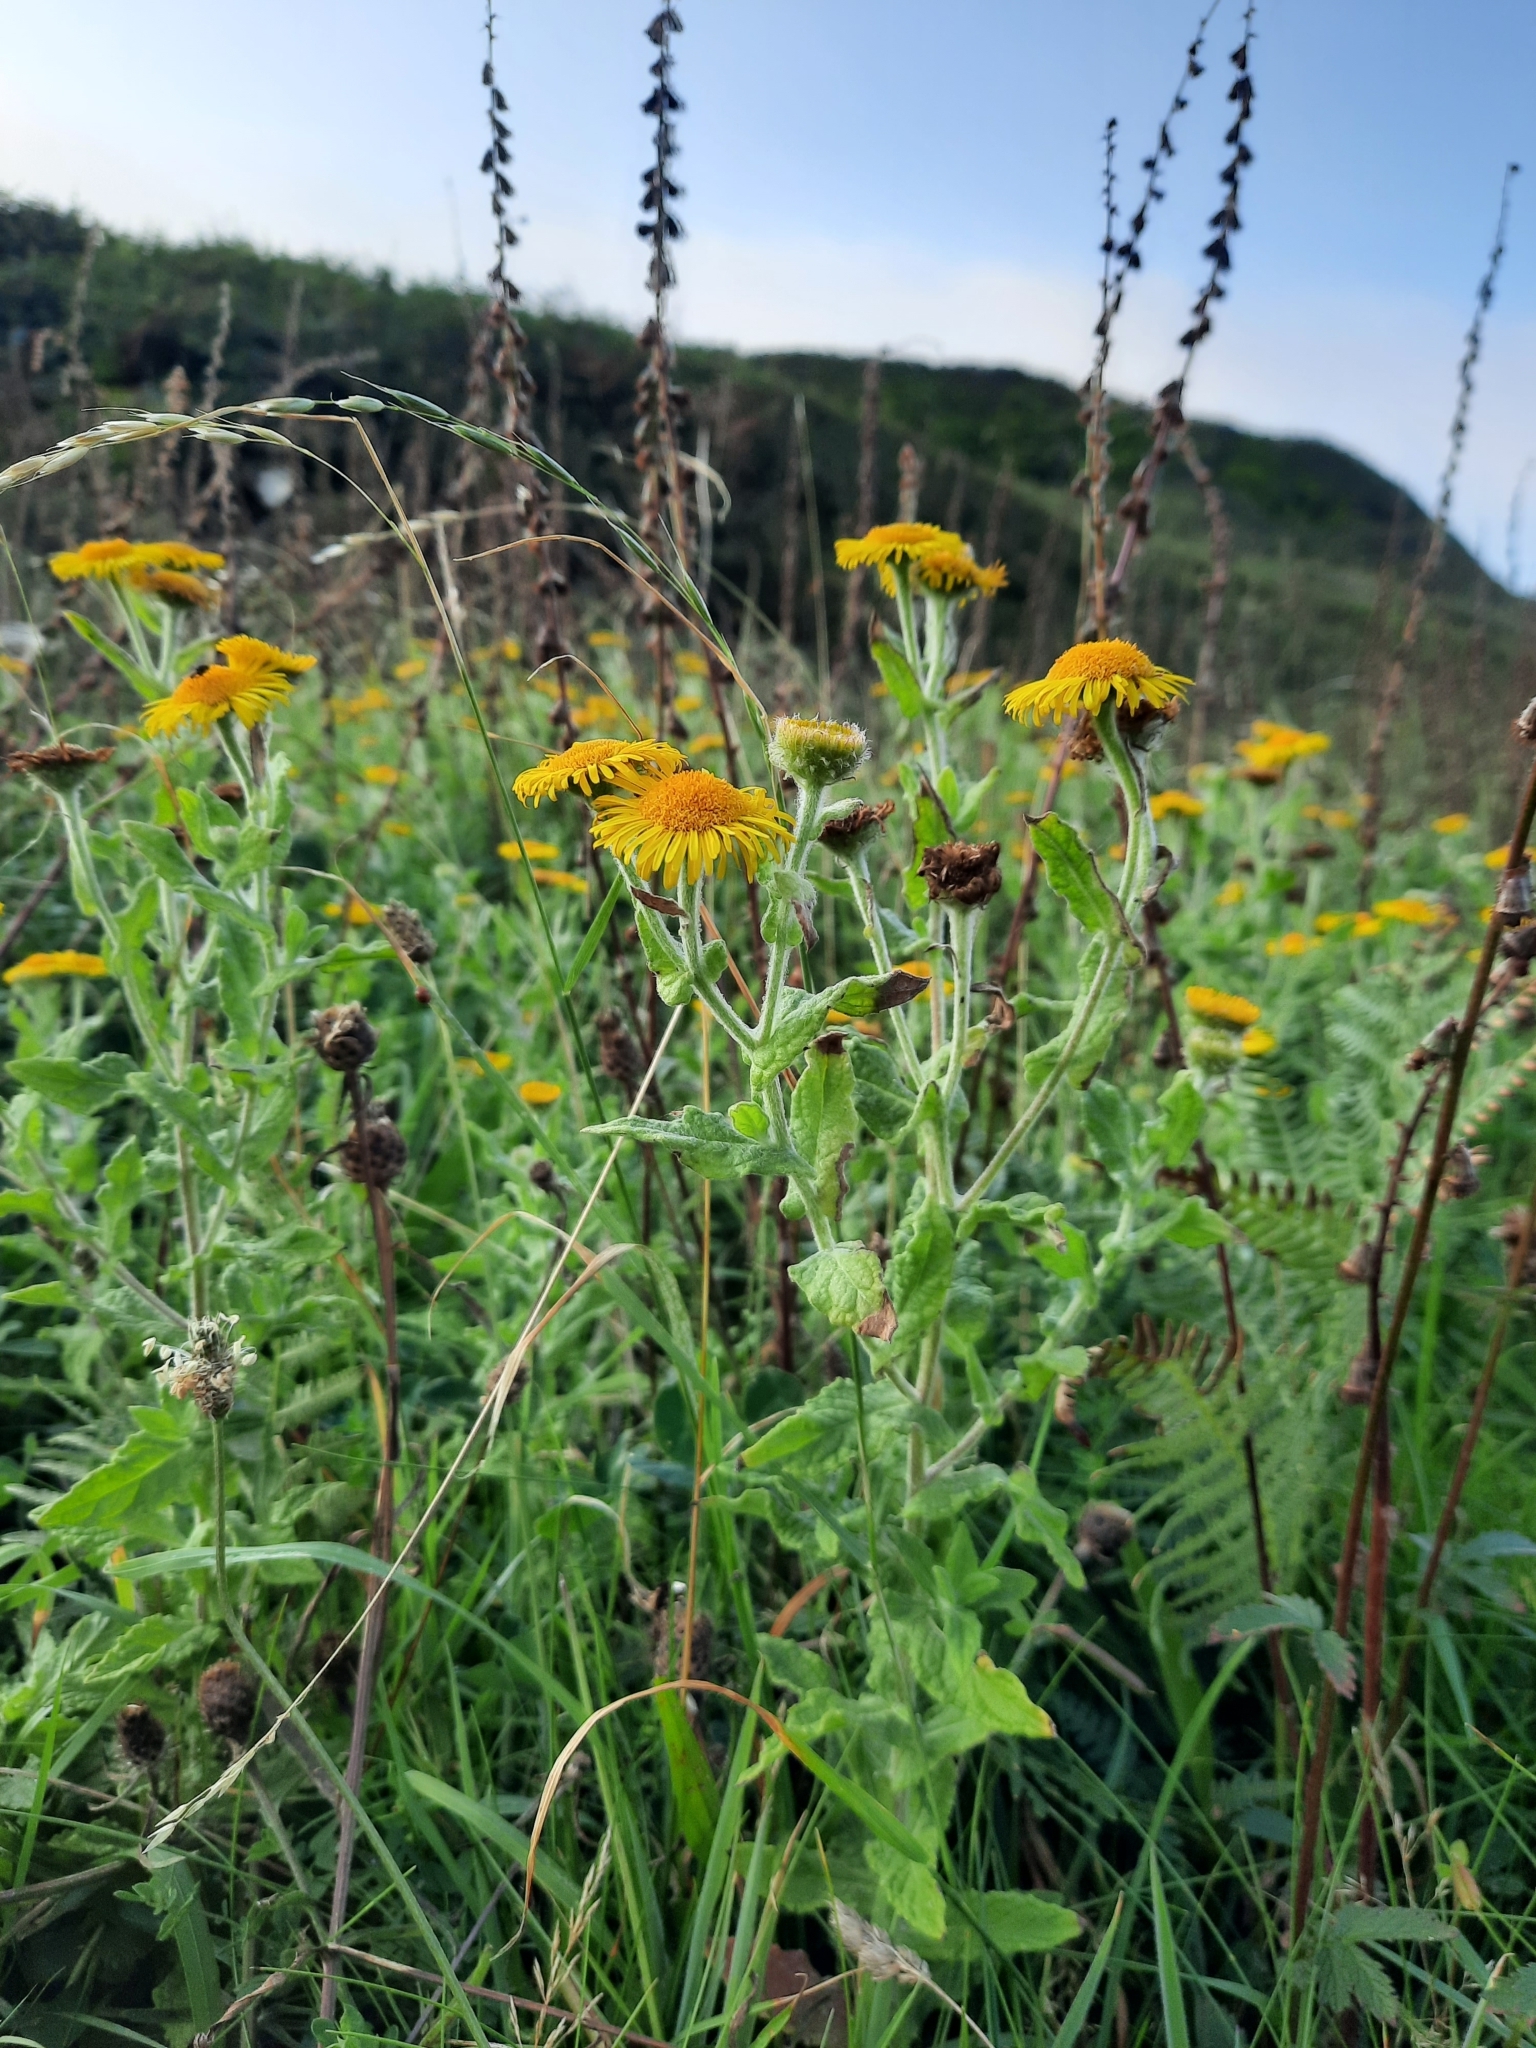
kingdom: Plantae
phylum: Tracheophyta
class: Magnoliopsida
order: Asterales
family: Asteraceae
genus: Pulicaria
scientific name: Pulicaria dysenterica
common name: Common fleabane
